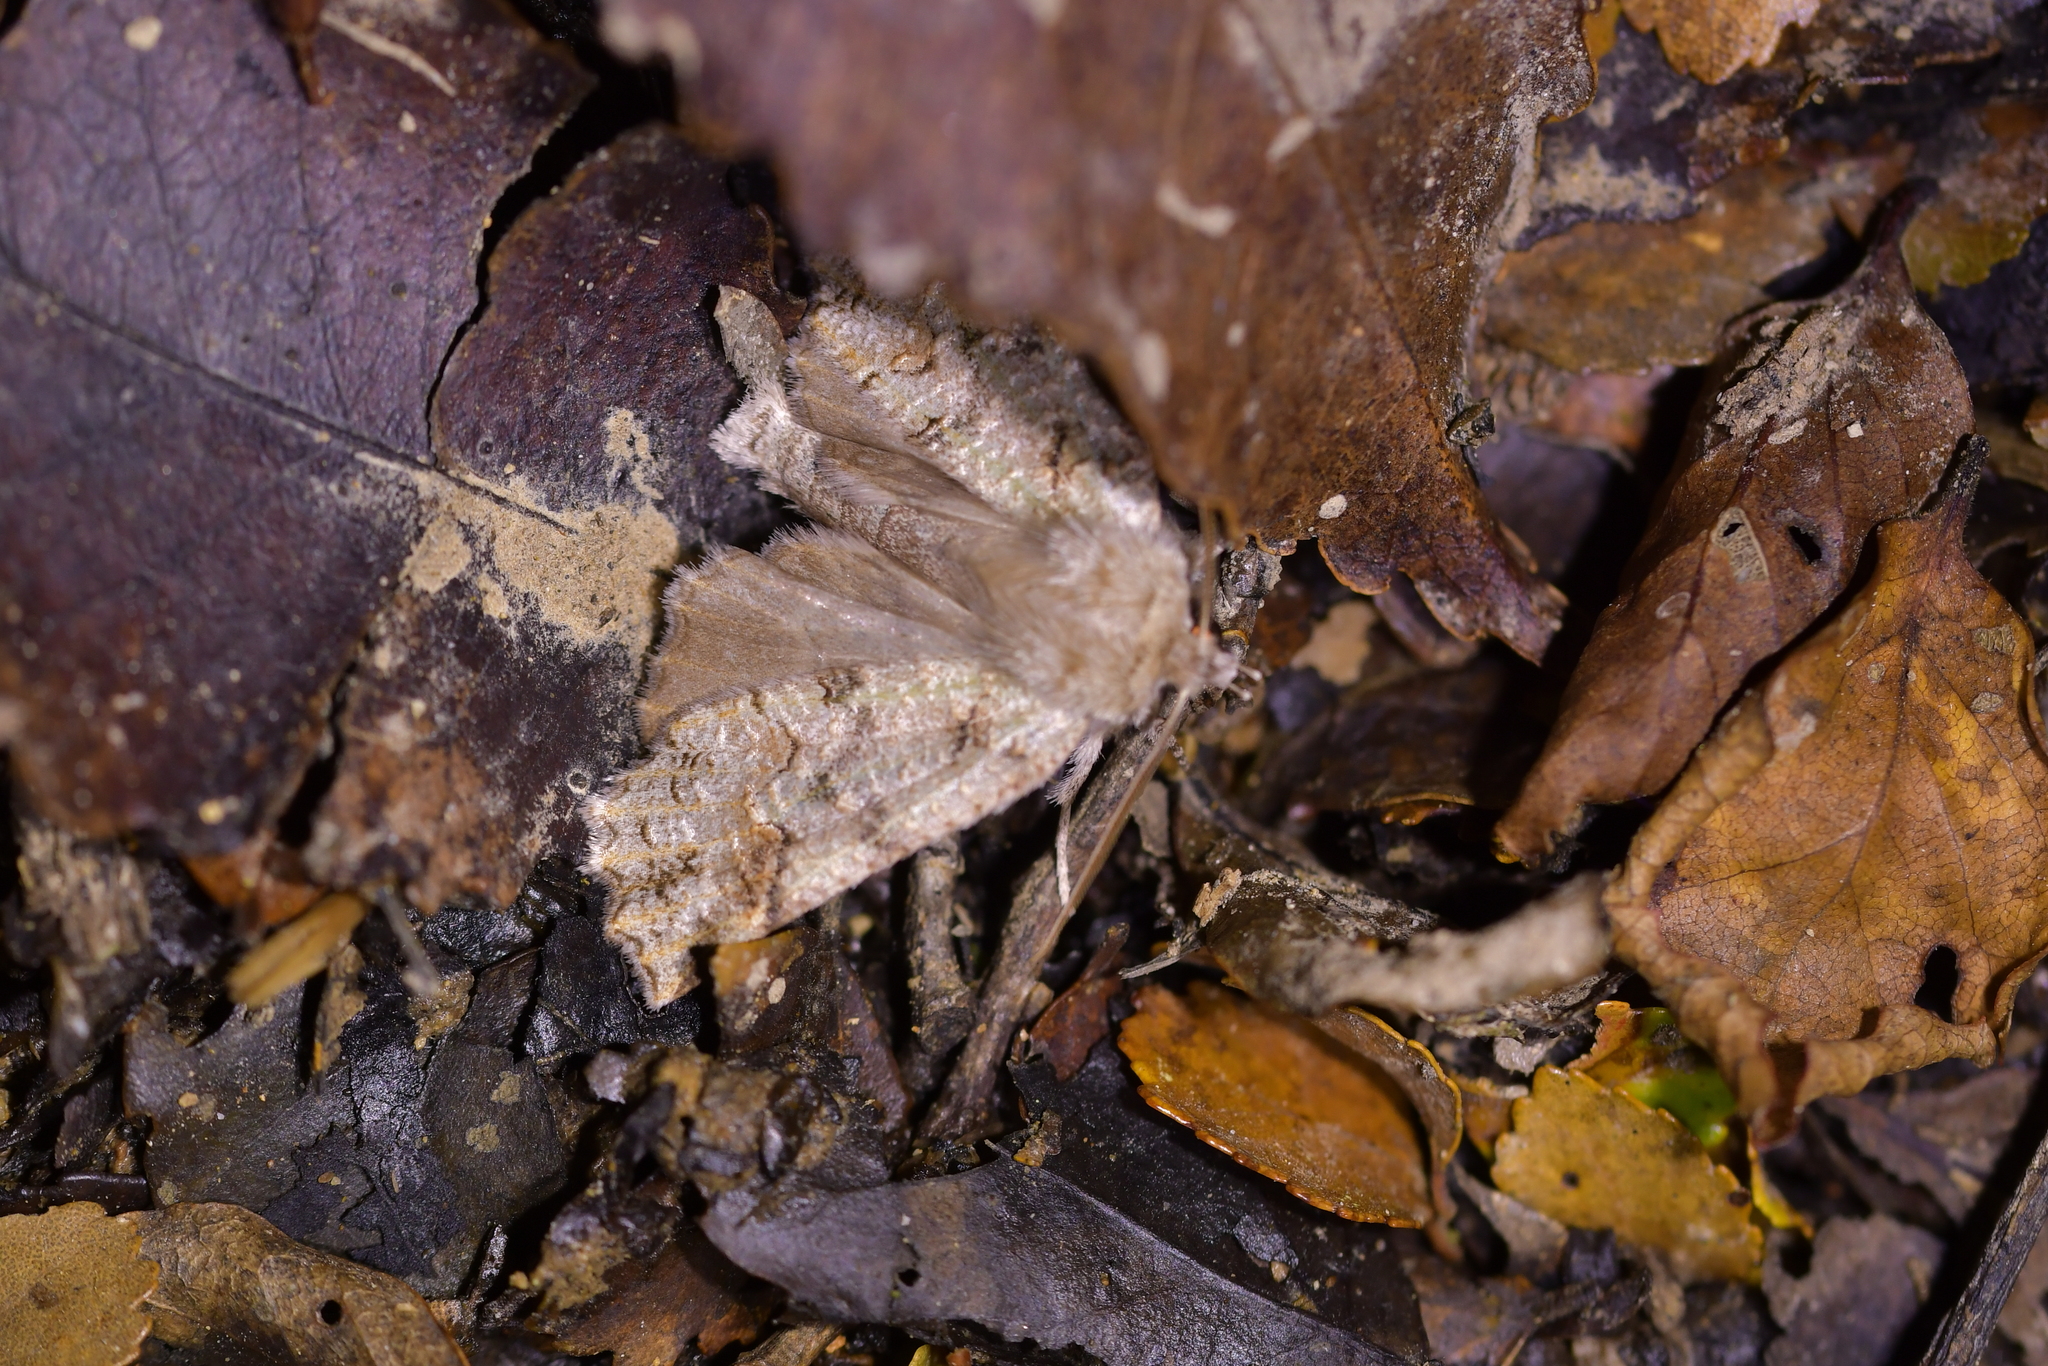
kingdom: Animalia
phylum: Arthropoda
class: Insecta
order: Lepidoptera
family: Geometridae
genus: Declana
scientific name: Declana floccosa
